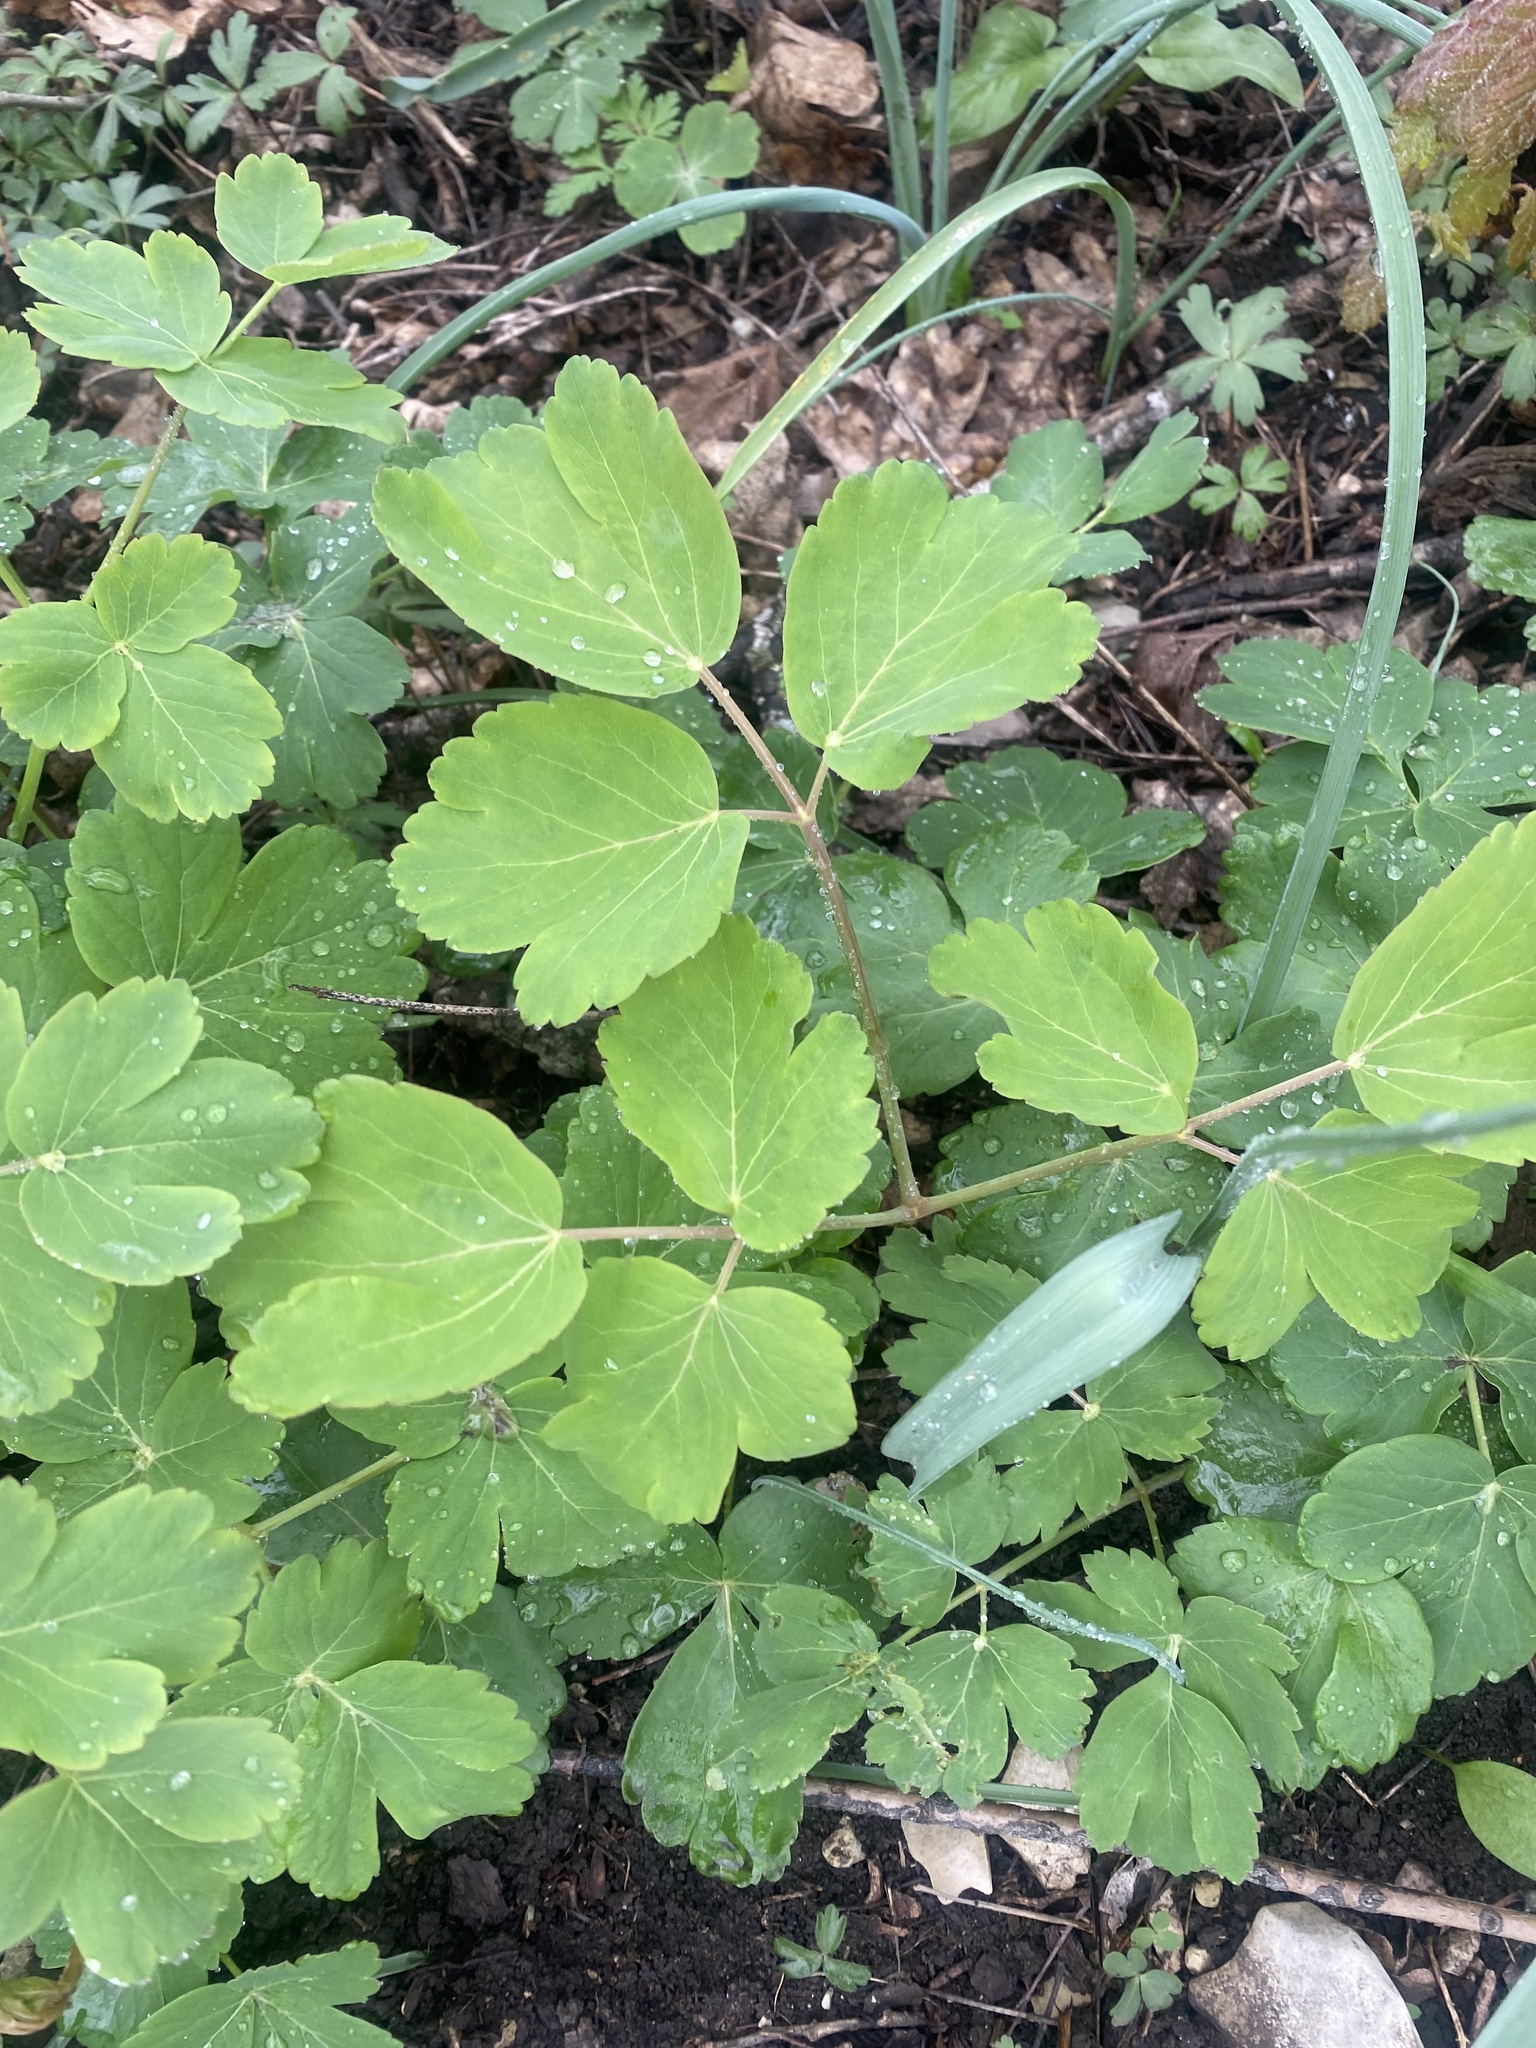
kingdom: Plantae
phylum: Tracheophyta
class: Magnoliopsida
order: Apiales
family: Apiaceae
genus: Laser
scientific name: Laser trilobum
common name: Laser
